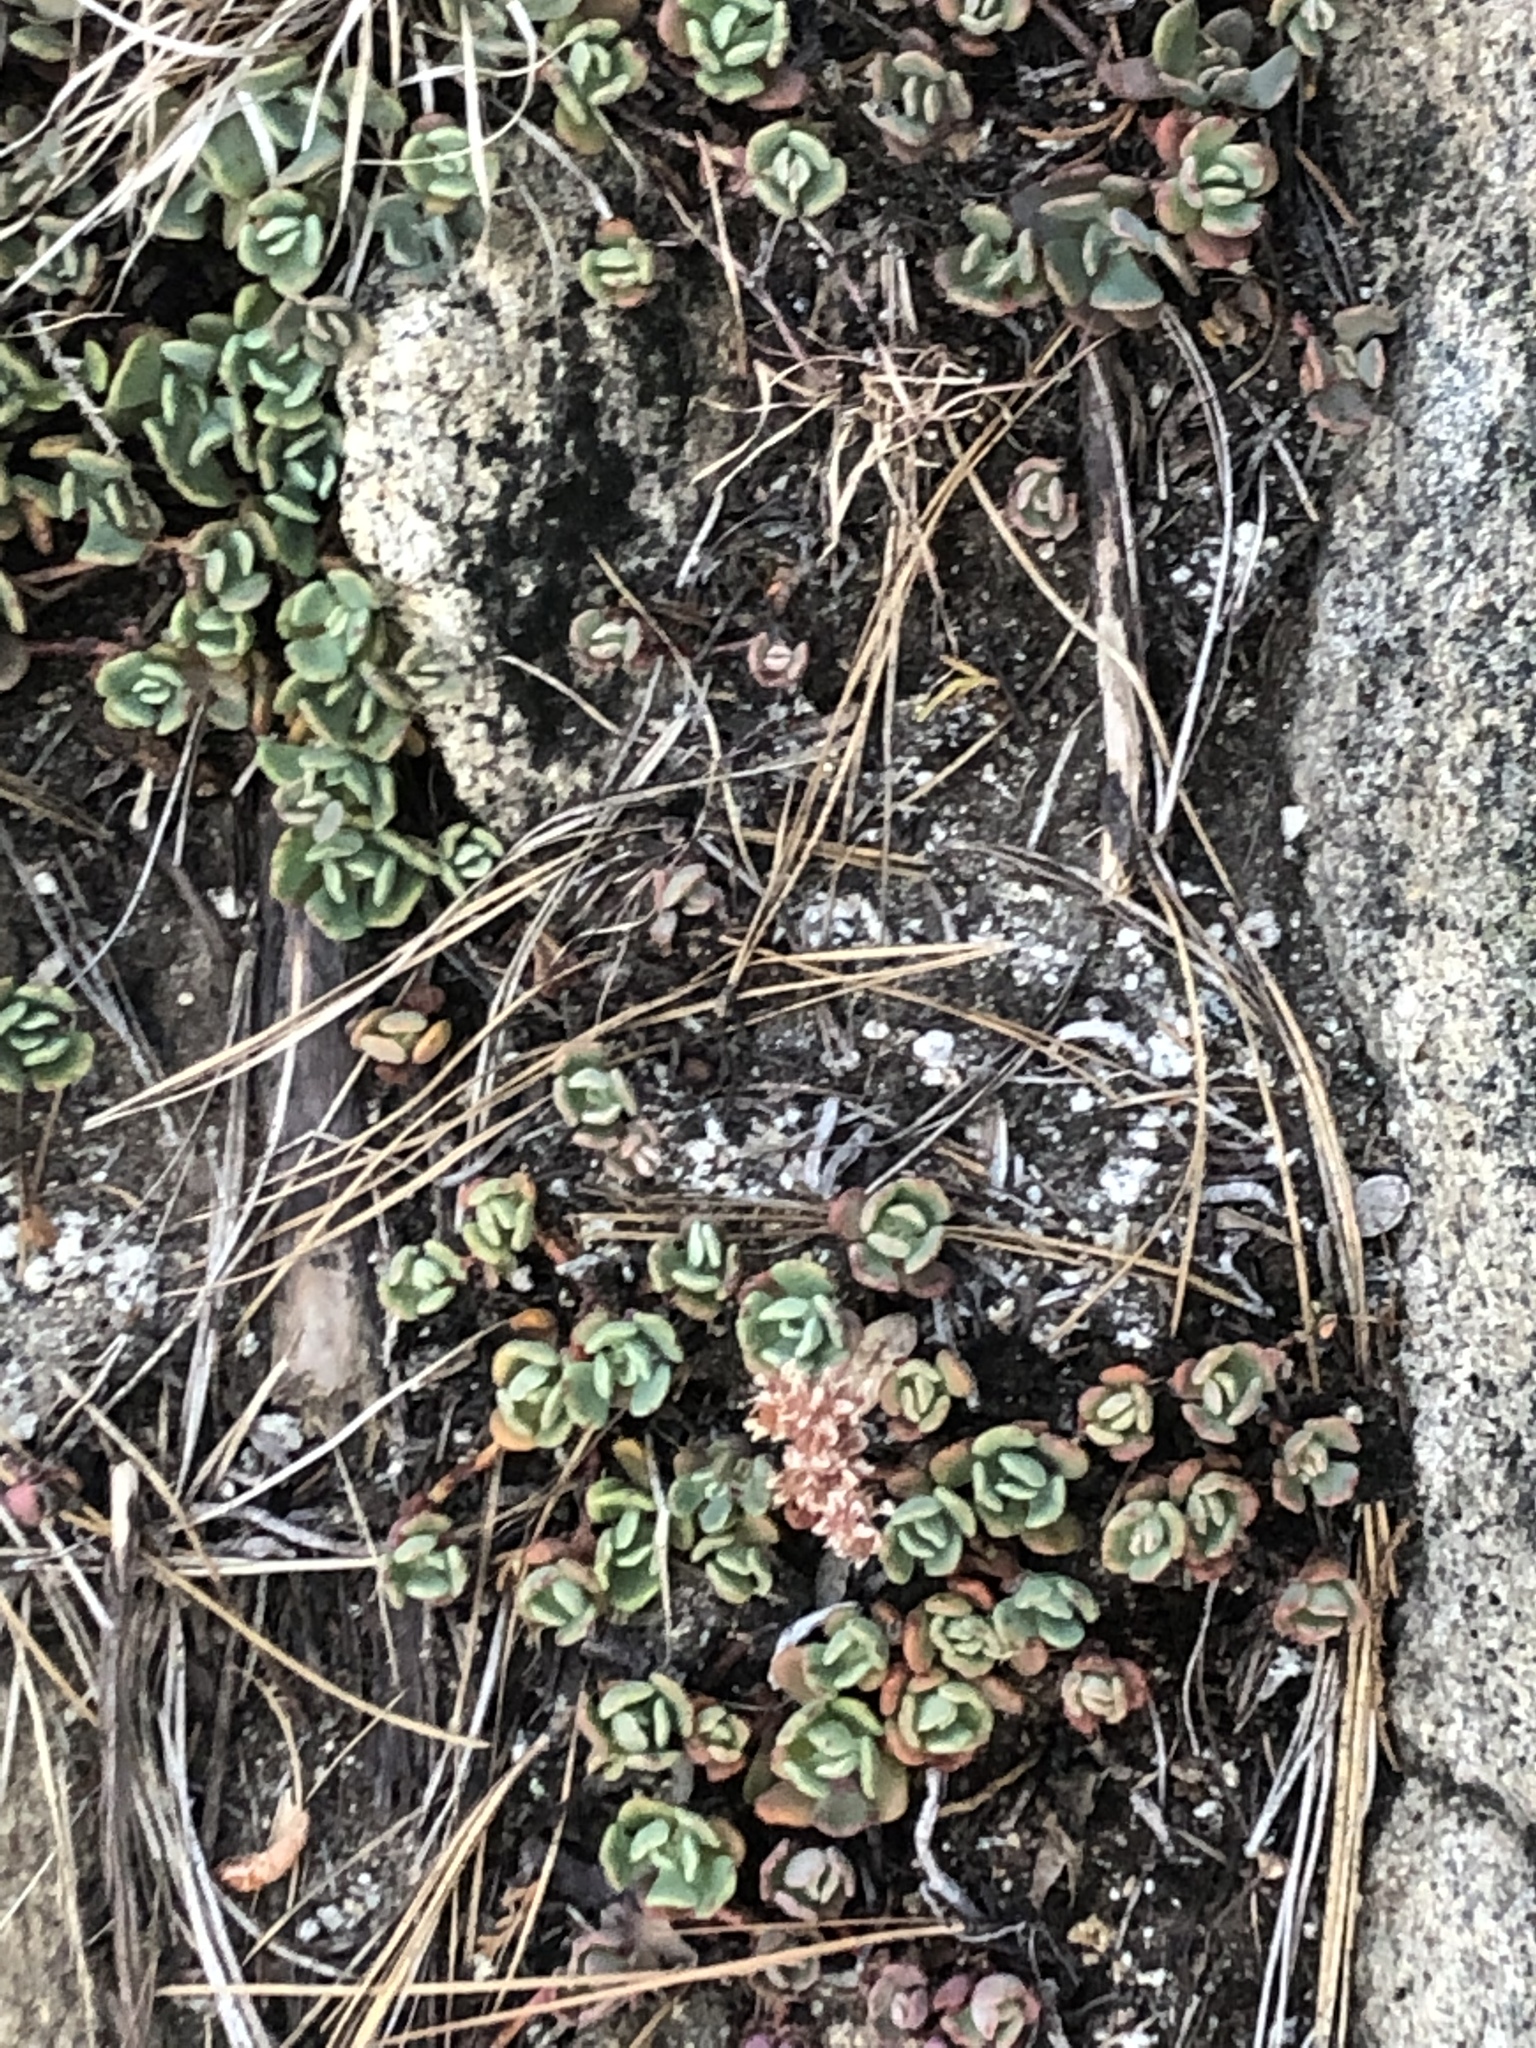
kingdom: Plantae
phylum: Tracheophyta
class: Magnoliopsida
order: Saxifragales
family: Crassulaceae
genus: Sedum
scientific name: Sedum obtusatum
